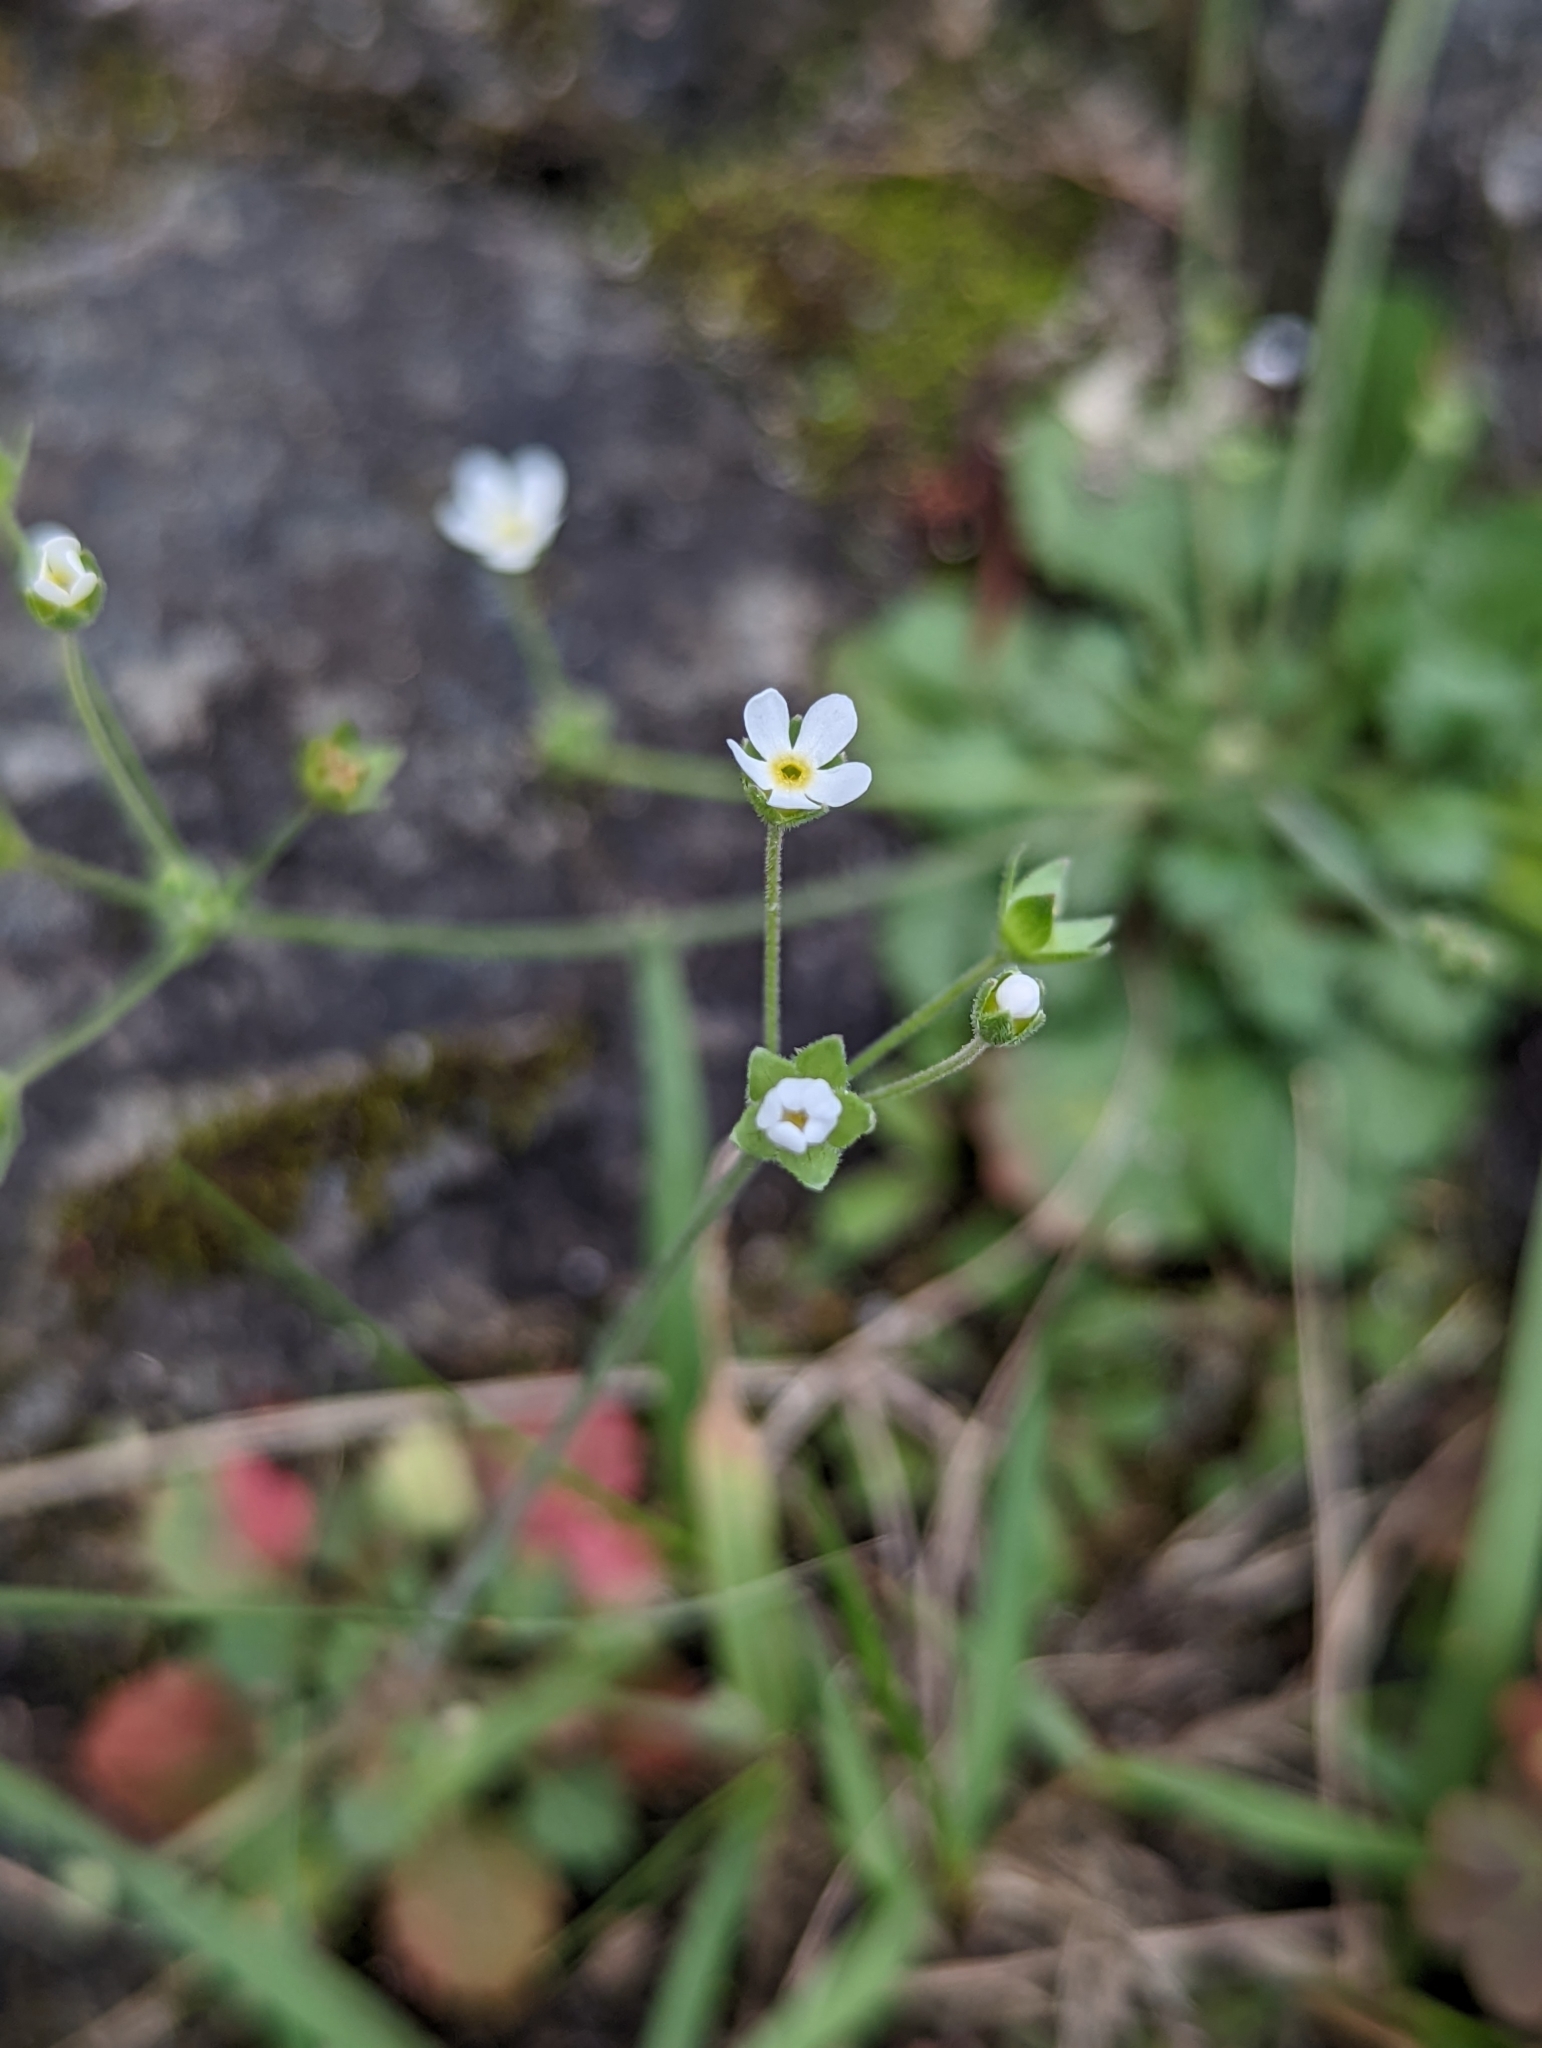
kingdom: Plantae
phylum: Tracheophyta
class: Magnoliopsida
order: Ericales
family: Primulaceae
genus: Androsace
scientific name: Androsace umbellata
